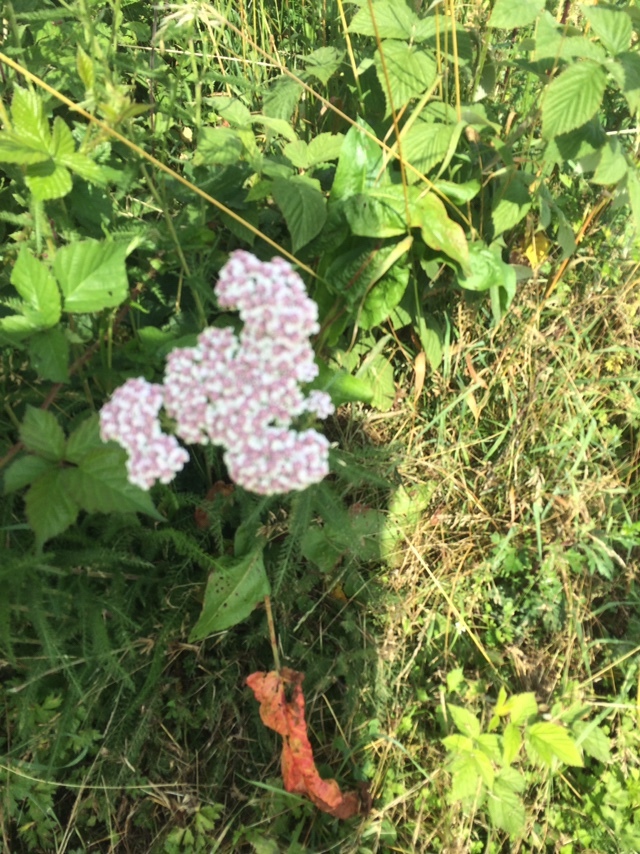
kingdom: Plantae
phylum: Tracheophyta
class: Magnoliopsida
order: Asterales
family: Asteraceae
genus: Achillea
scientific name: Achillea millefolium
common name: Yarrow
